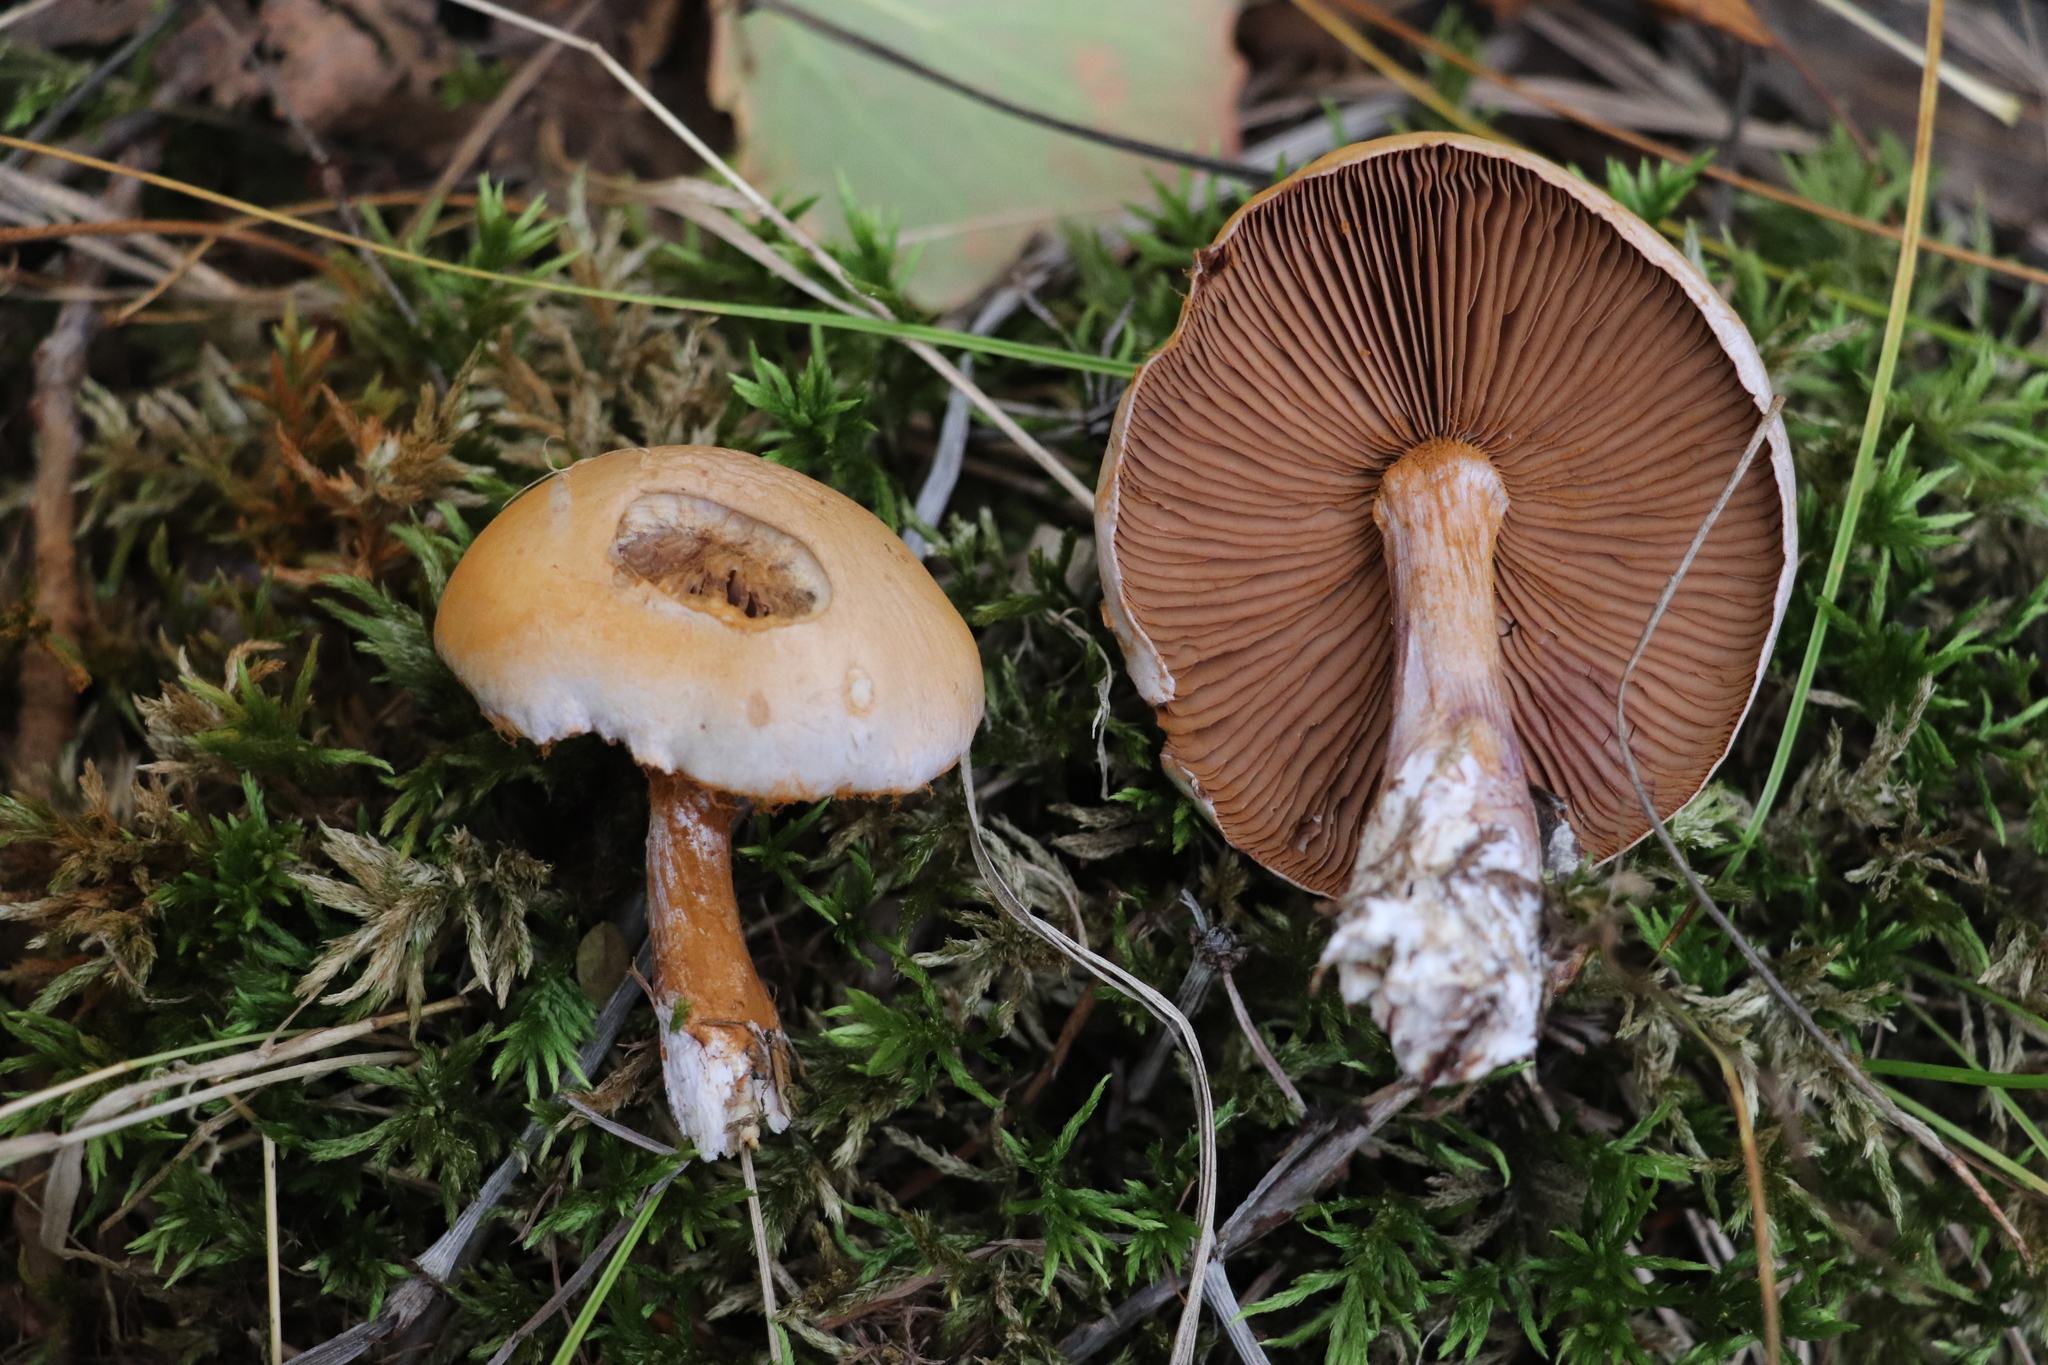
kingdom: Fungi
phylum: Basidiomycota
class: Agaricomycetes
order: Agaricales
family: Cortinariaceae
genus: Thaxterogaster
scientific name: Thaxterogaster porphyropus
